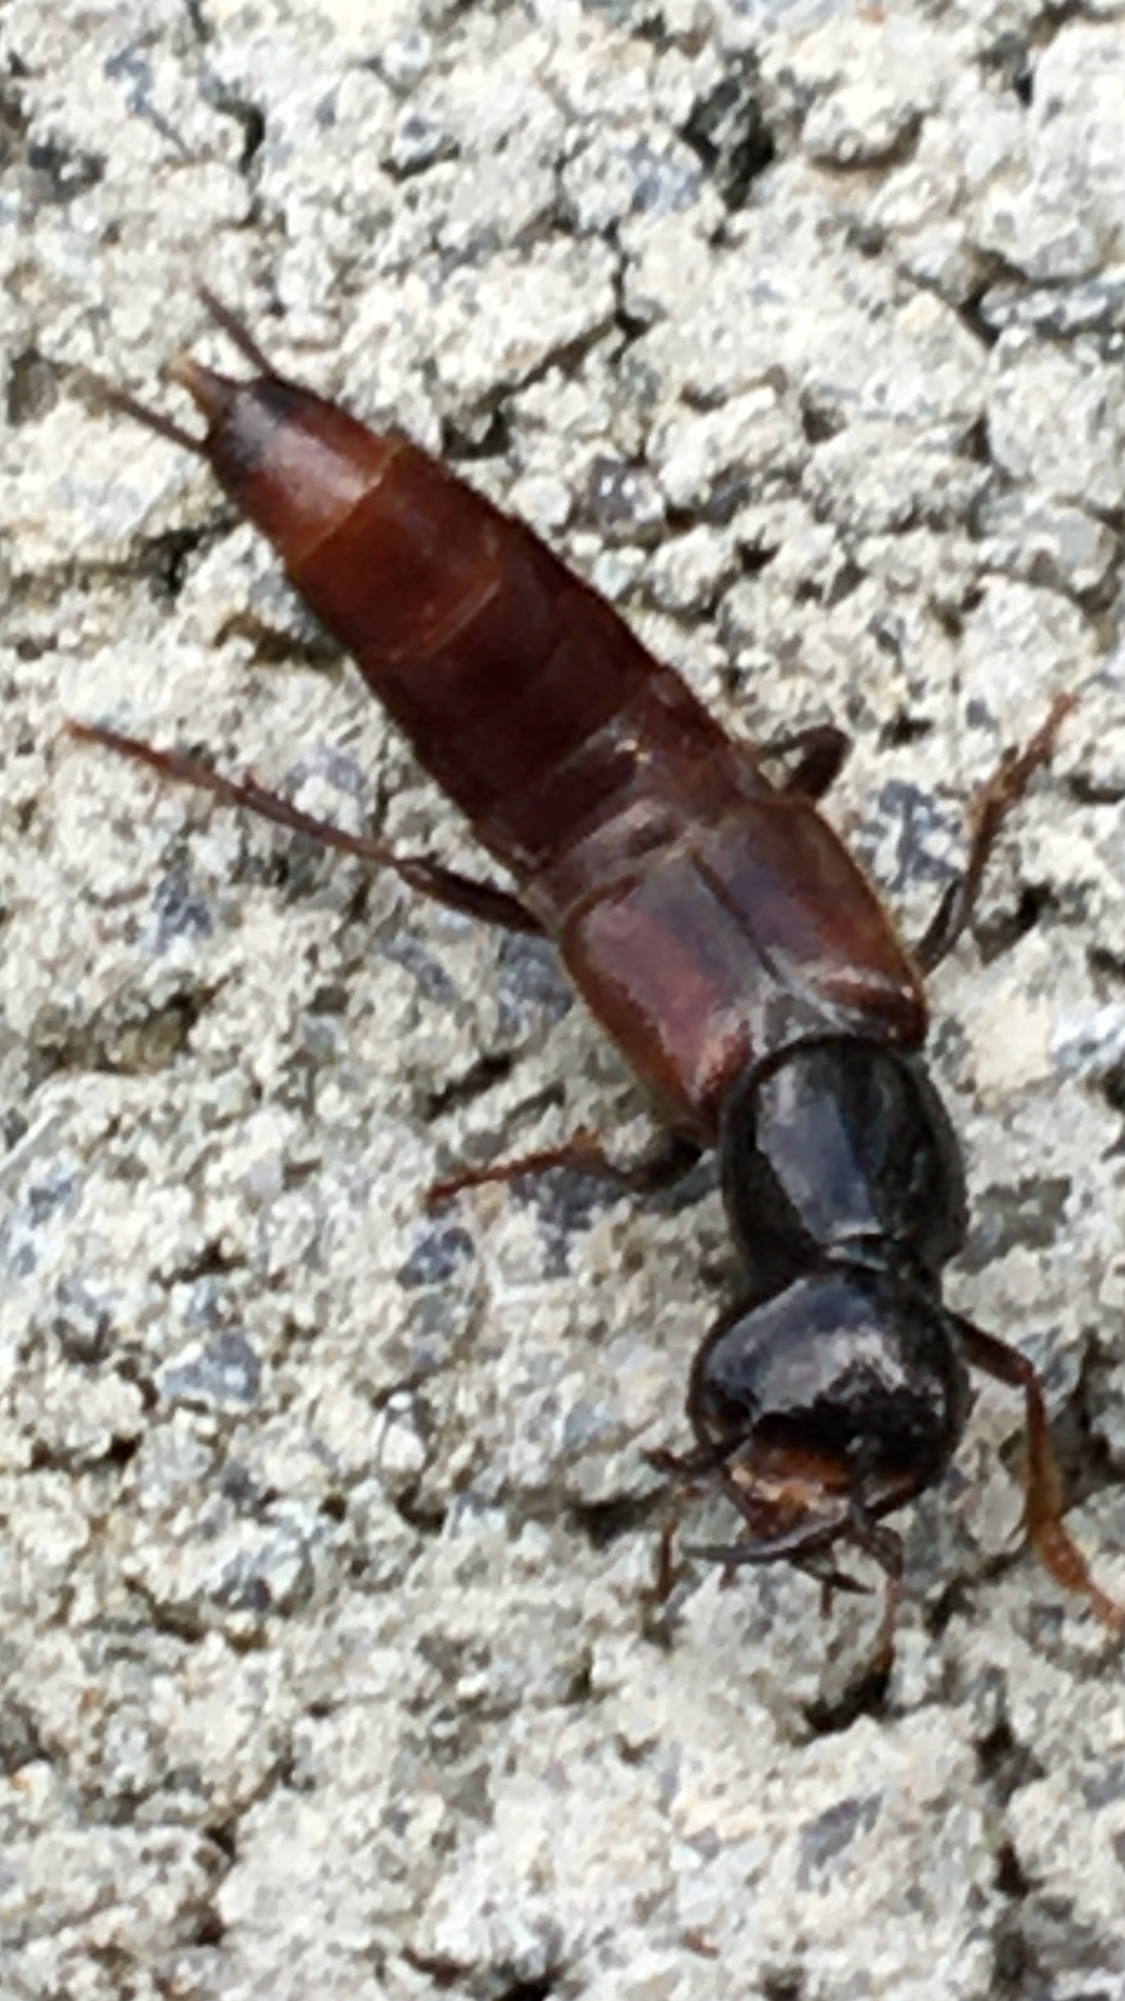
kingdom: Animalia
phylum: Arthropoda
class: Insecta
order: Coleoptera
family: Staphylinidae
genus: Hesperus
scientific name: Hesperus baltimorensis
